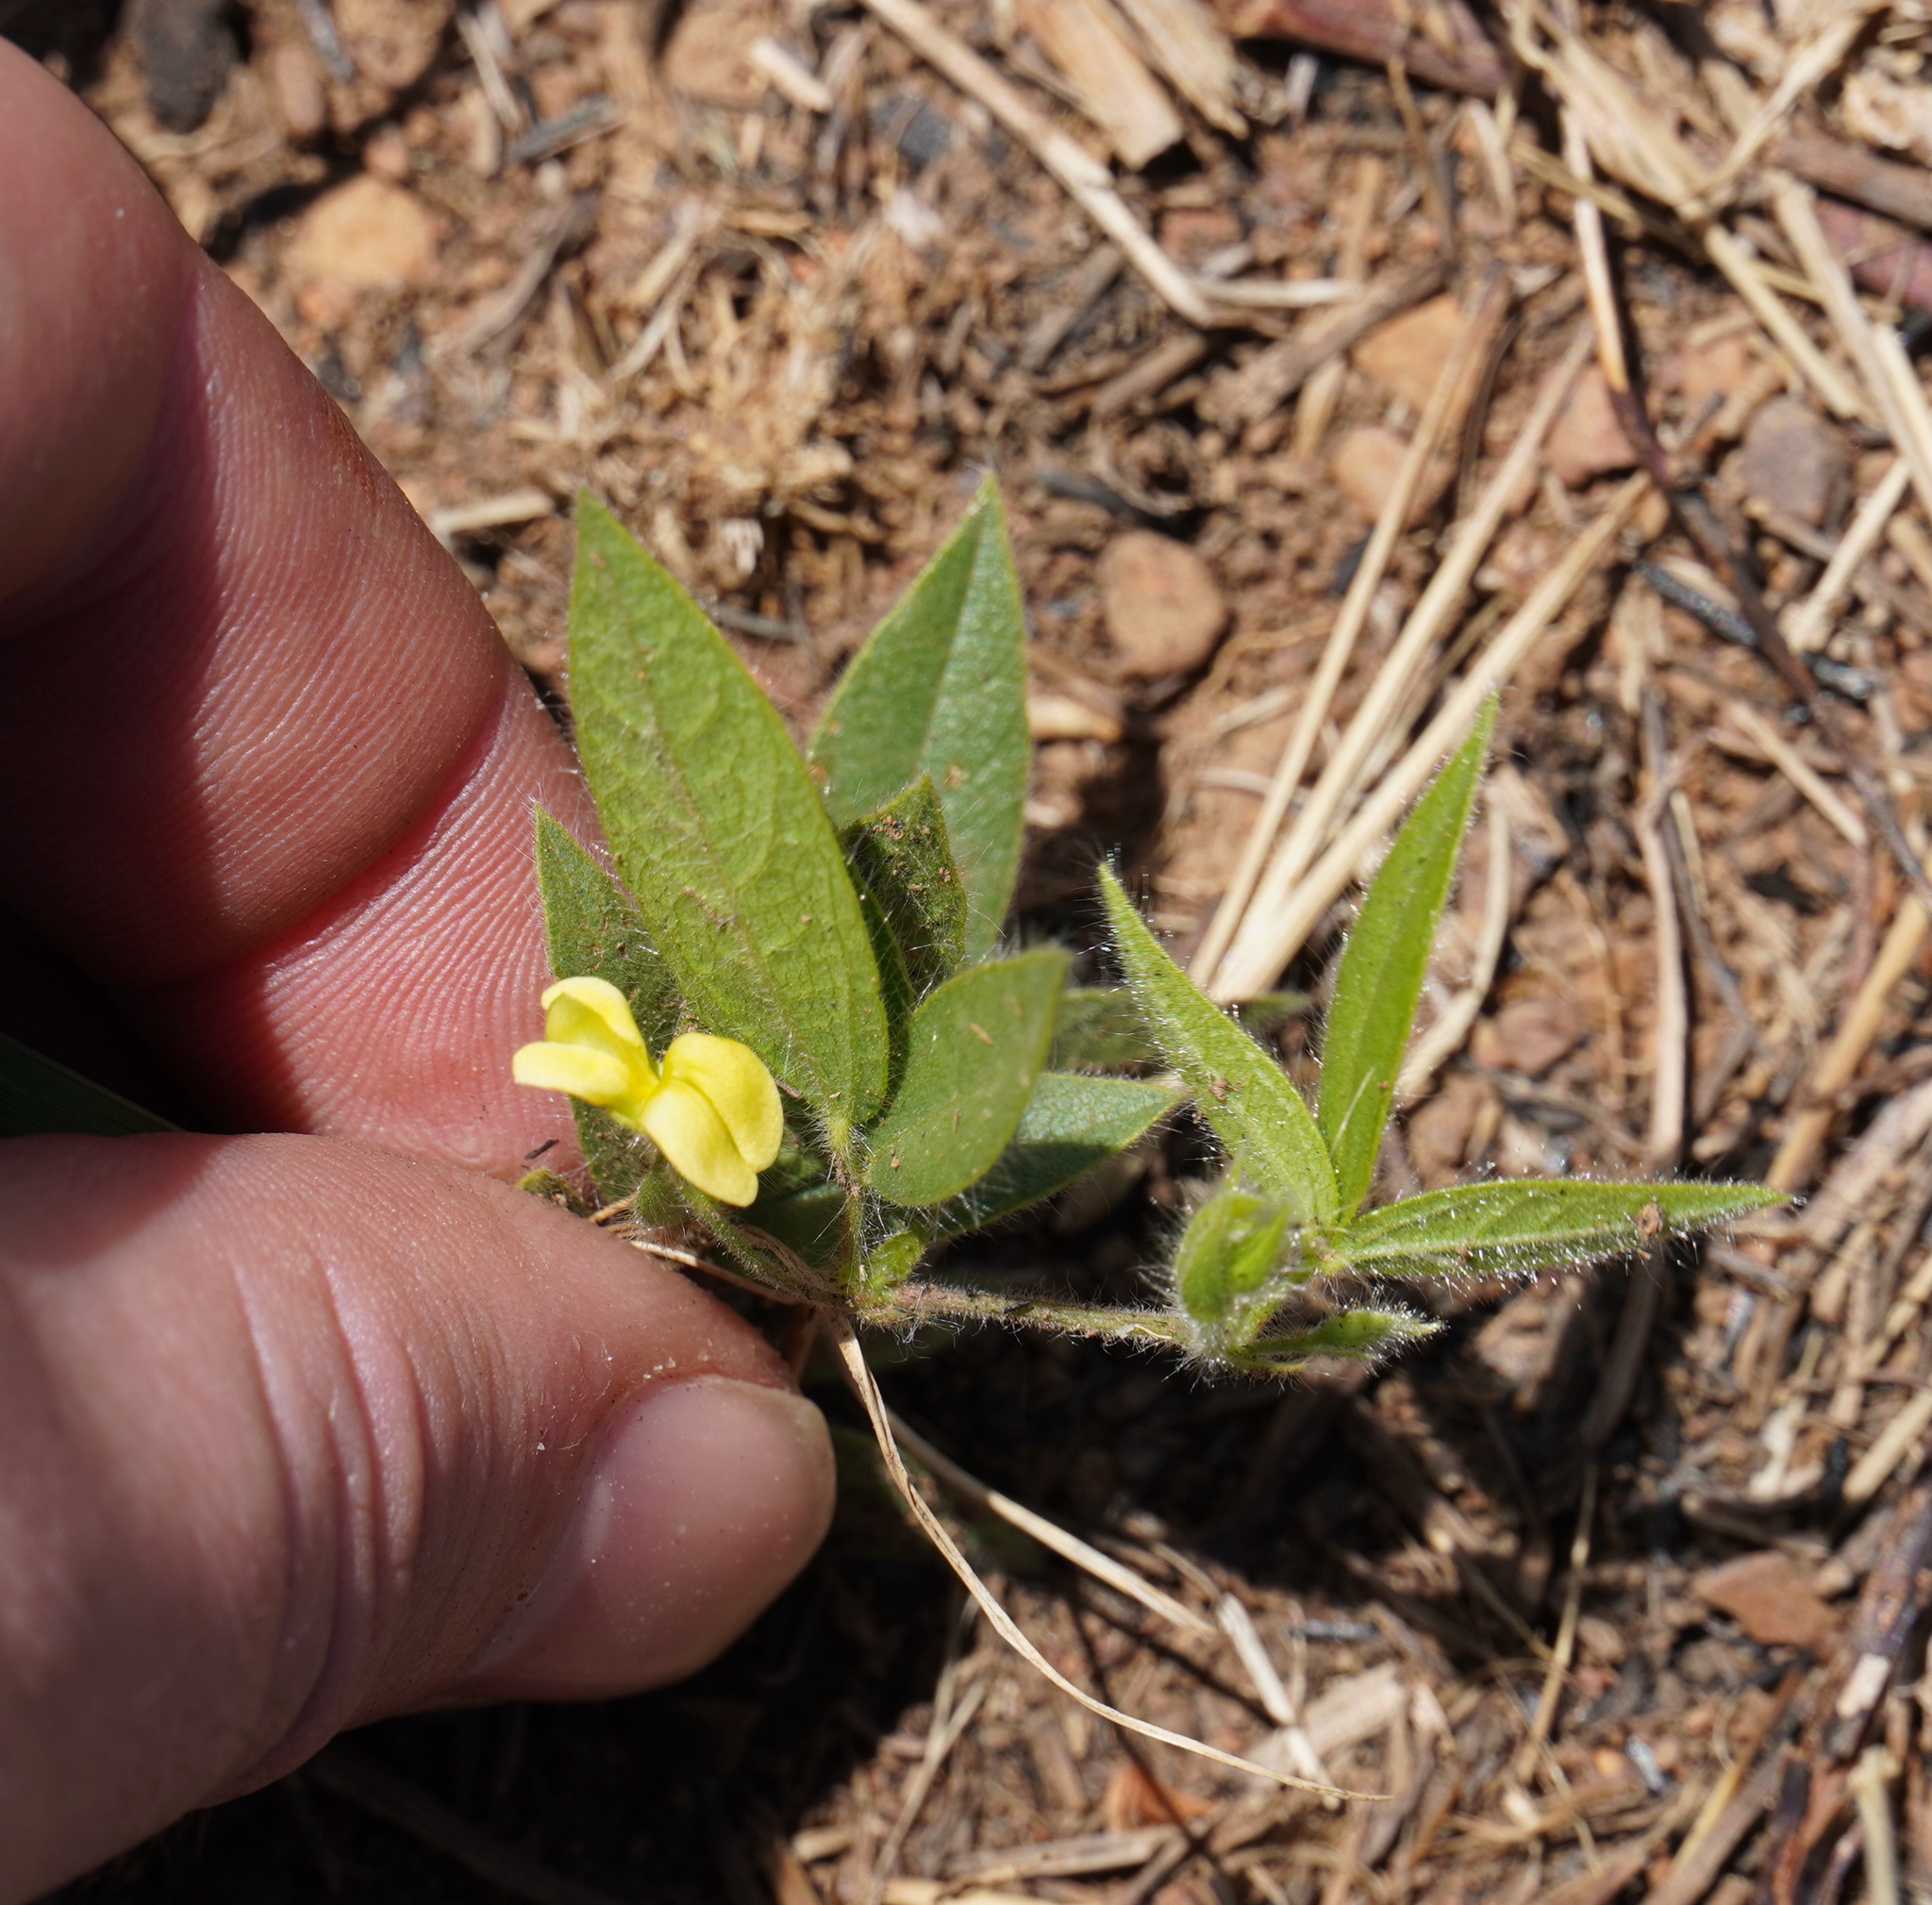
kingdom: Plantae
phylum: Tracheophyta
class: Magnoliopsida
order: Fabales
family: Fabaceae
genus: Rhynchosia
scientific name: Rhynchosia totta
